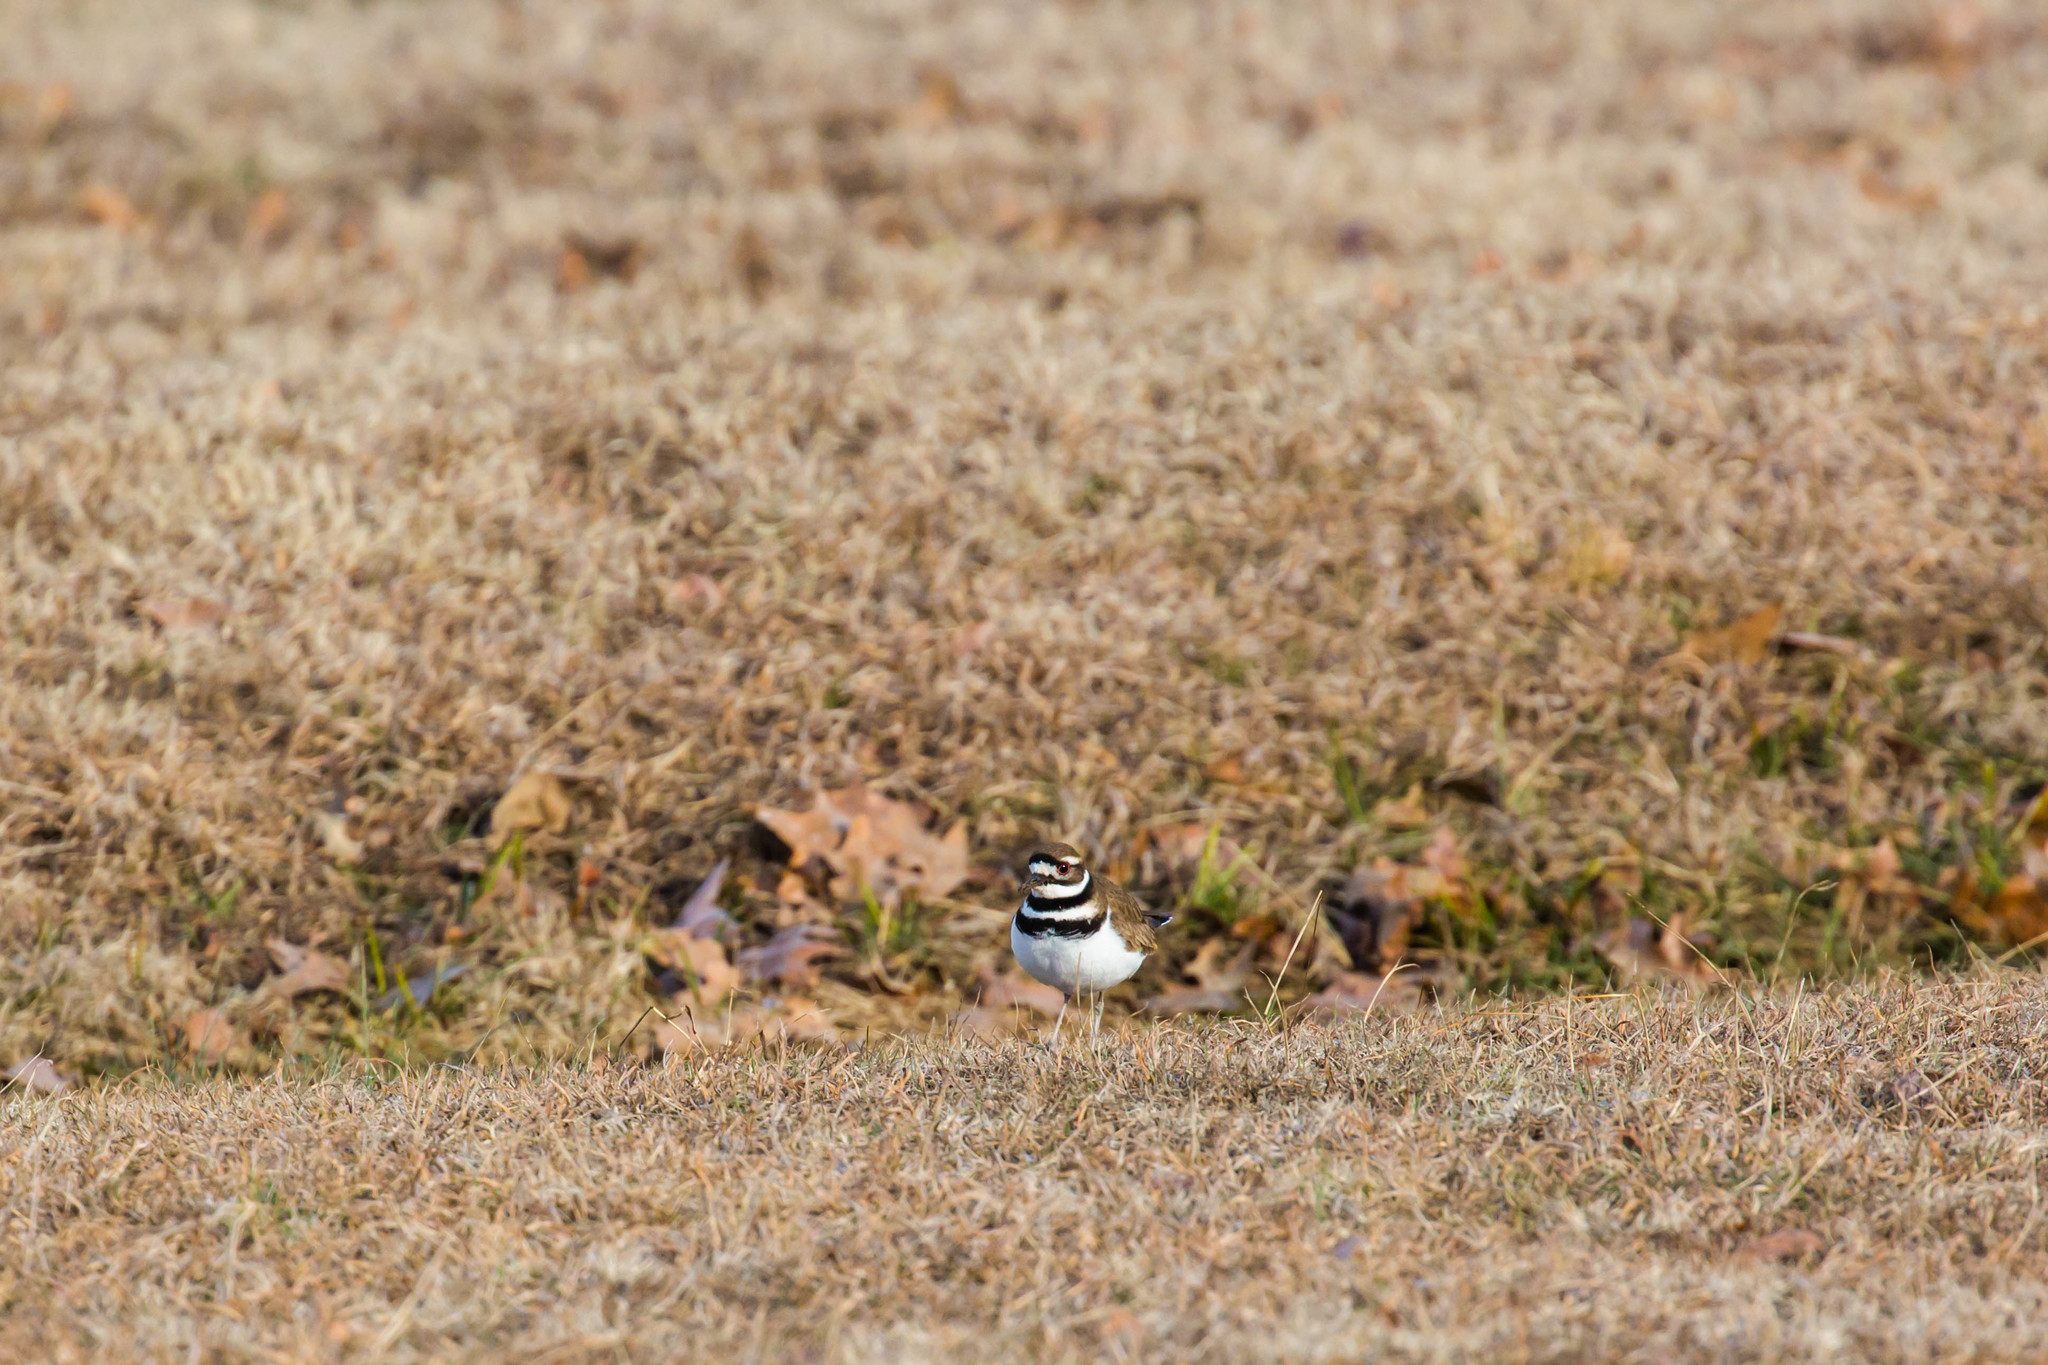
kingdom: Animalia
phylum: Chordata
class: Aves
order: Charadriiformes
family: Charadriidae
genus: Charadrius
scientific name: Charadrius vociferus
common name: Killdeer
